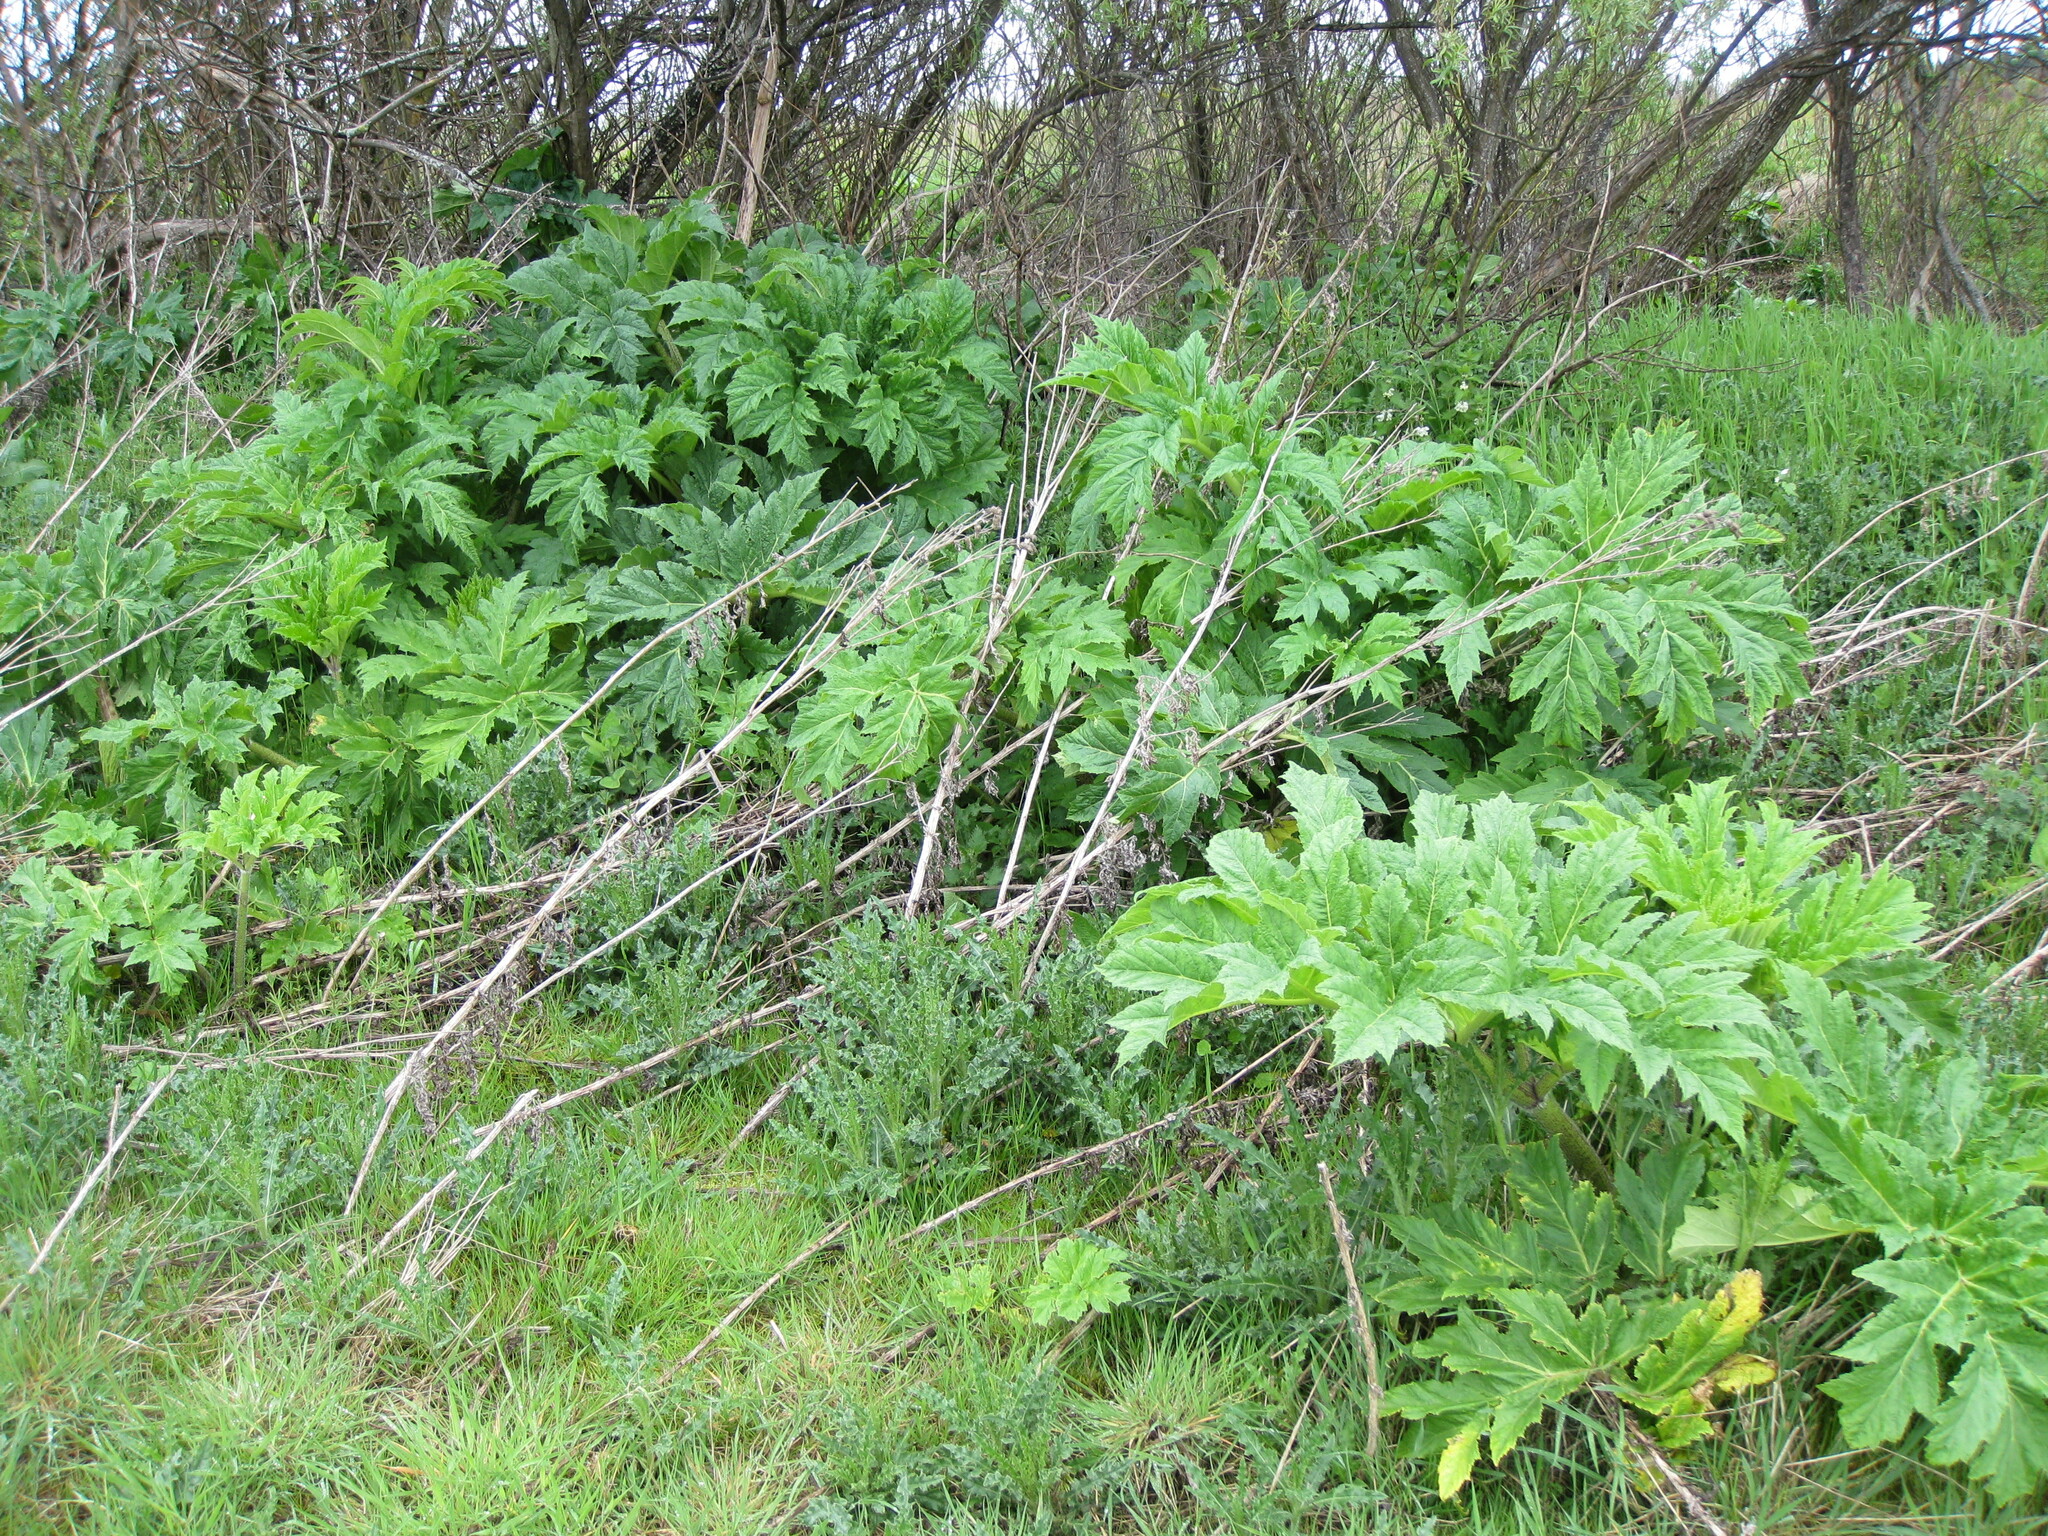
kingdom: Plantae
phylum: Tracheophyta
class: Magnoliopsida
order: Apiales
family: Apiaceae
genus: Heracleum
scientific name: Heracleum mantegazzianum
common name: Giant hogweed
